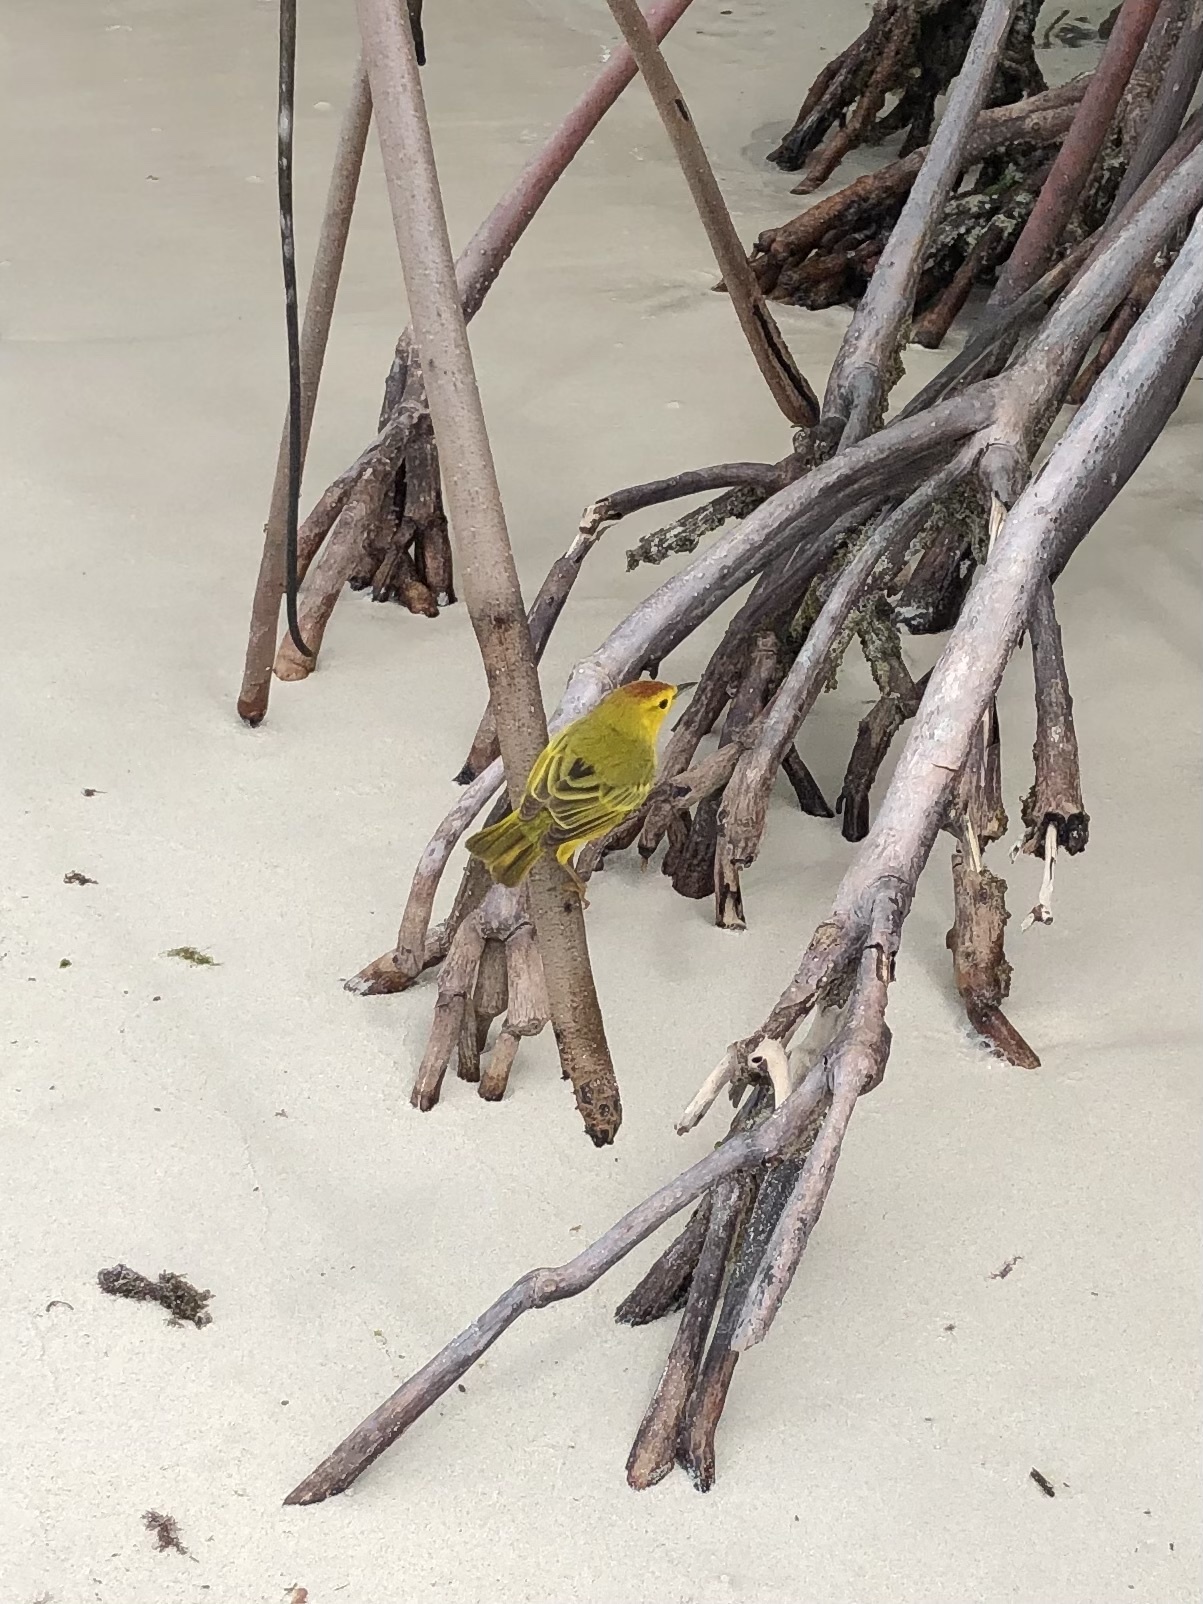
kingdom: Animalia
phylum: Chordata
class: Aves
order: Passeriformes
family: Parulidae
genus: Setophaga
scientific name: Setophaga petechia
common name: Yellow warbler
